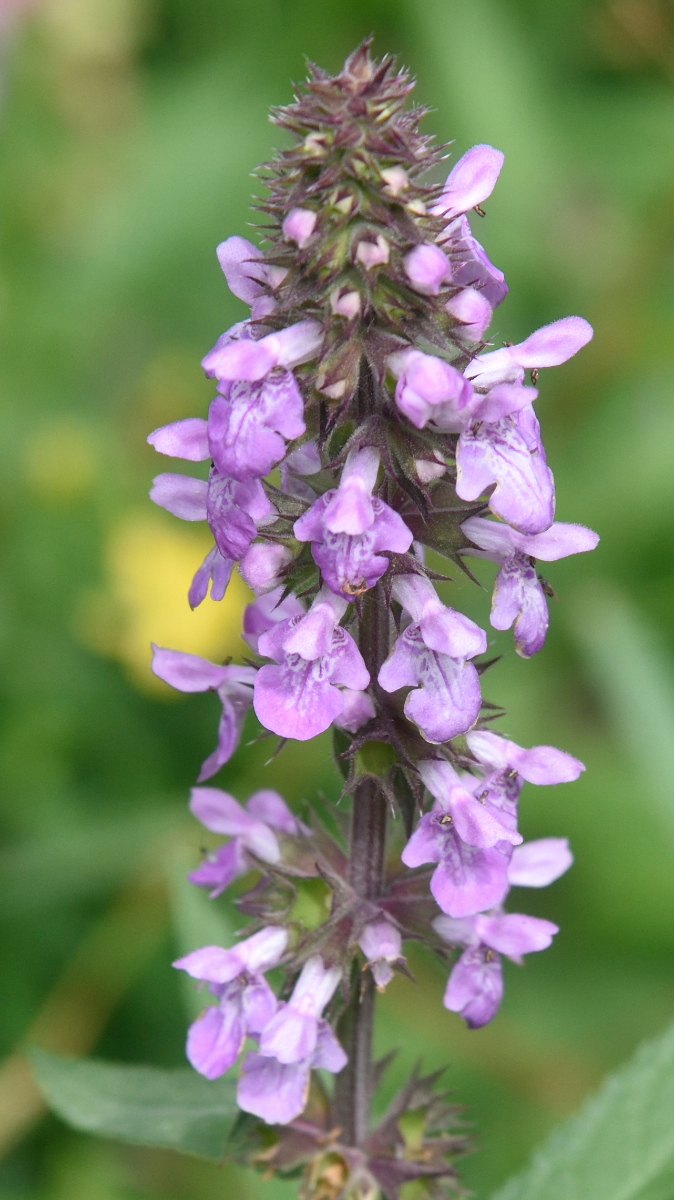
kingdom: Plantae
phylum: Tracheophyta
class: Magnoliopsida
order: Lamiales
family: Lamiaceae
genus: Stachys
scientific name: Stachys palustris
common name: Marsh woundwort
